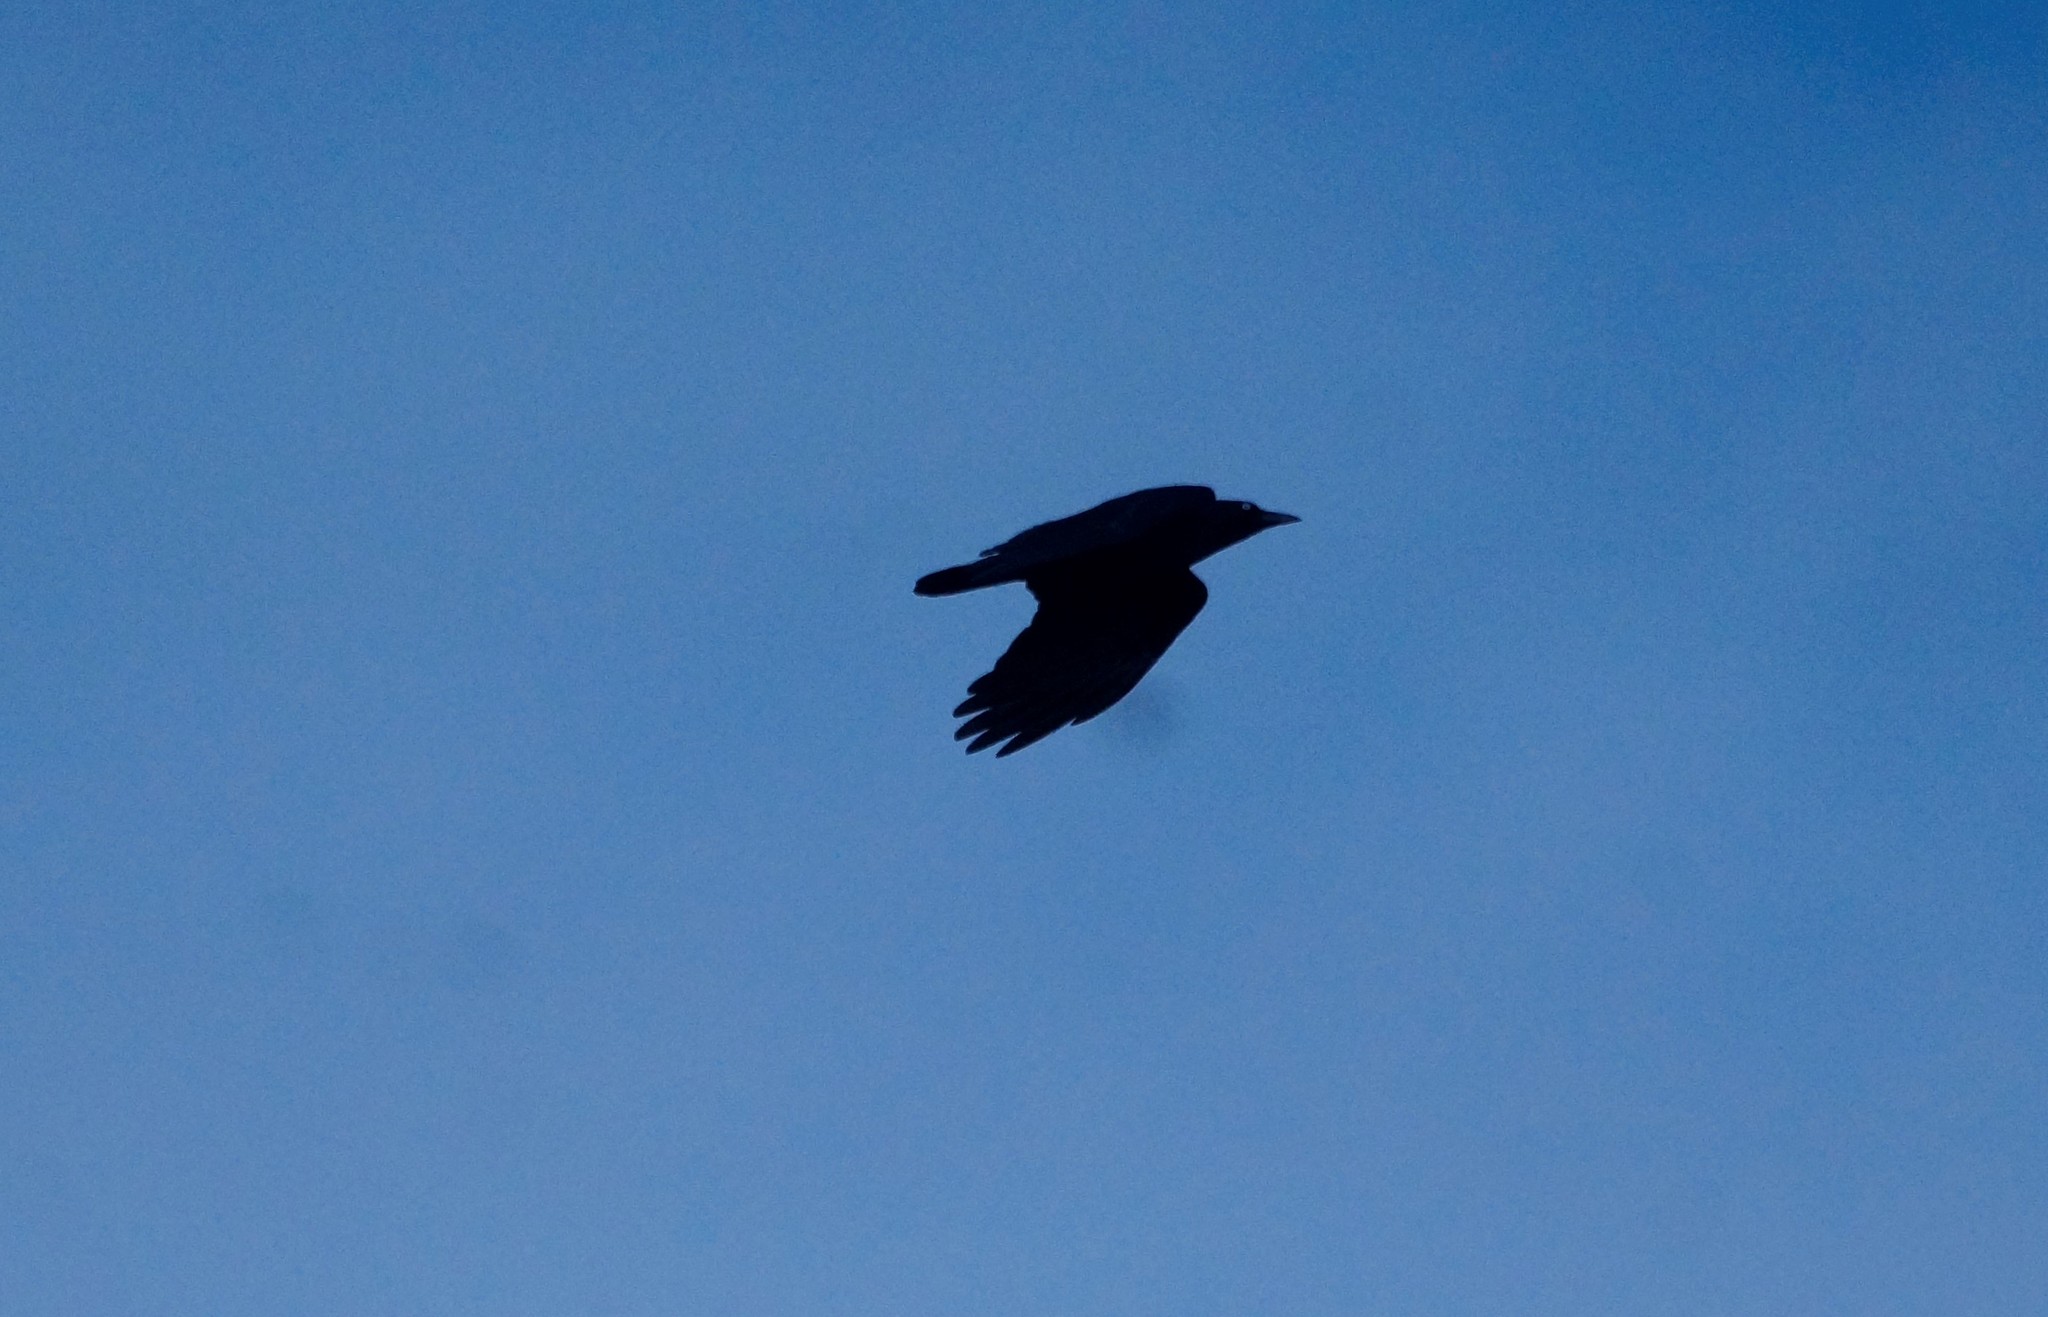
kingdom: Animalia
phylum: Chordata
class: Aves
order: Passeriformes
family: Corvidae
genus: Corvus
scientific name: Corvus mellori
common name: Little raven
